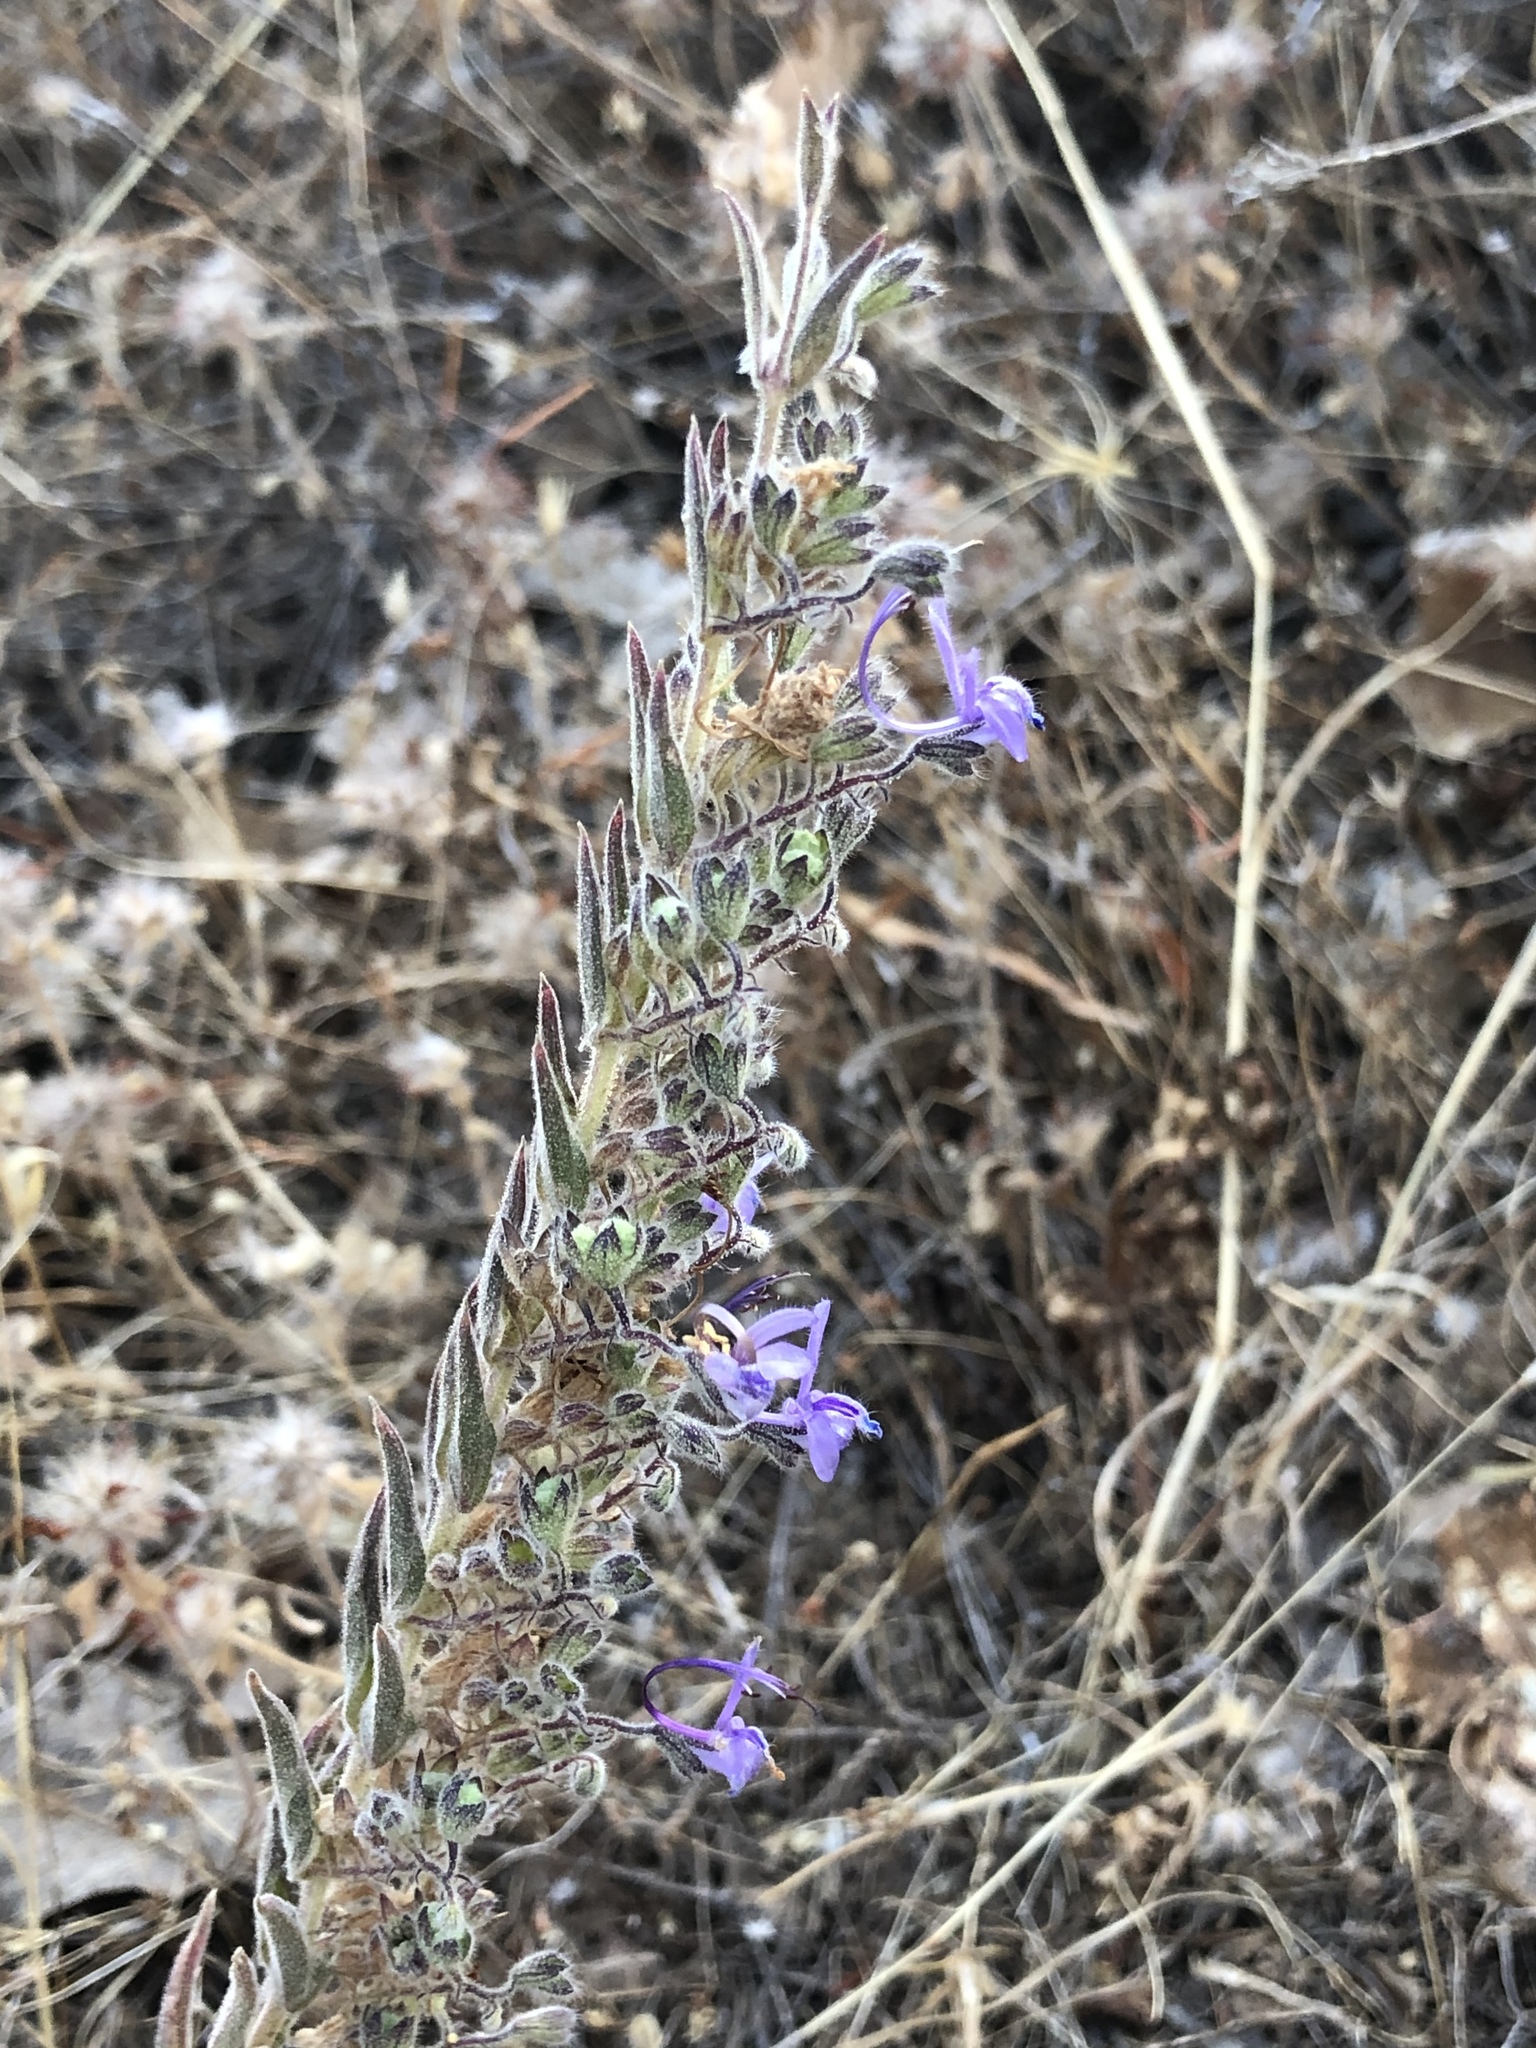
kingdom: Plantae
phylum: Tracheophyta
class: Magnoliopsida
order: Lamiales
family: Lamiaceae
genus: Trichostema
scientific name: Trichostema lanceolatum
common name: Vinegar-weed
